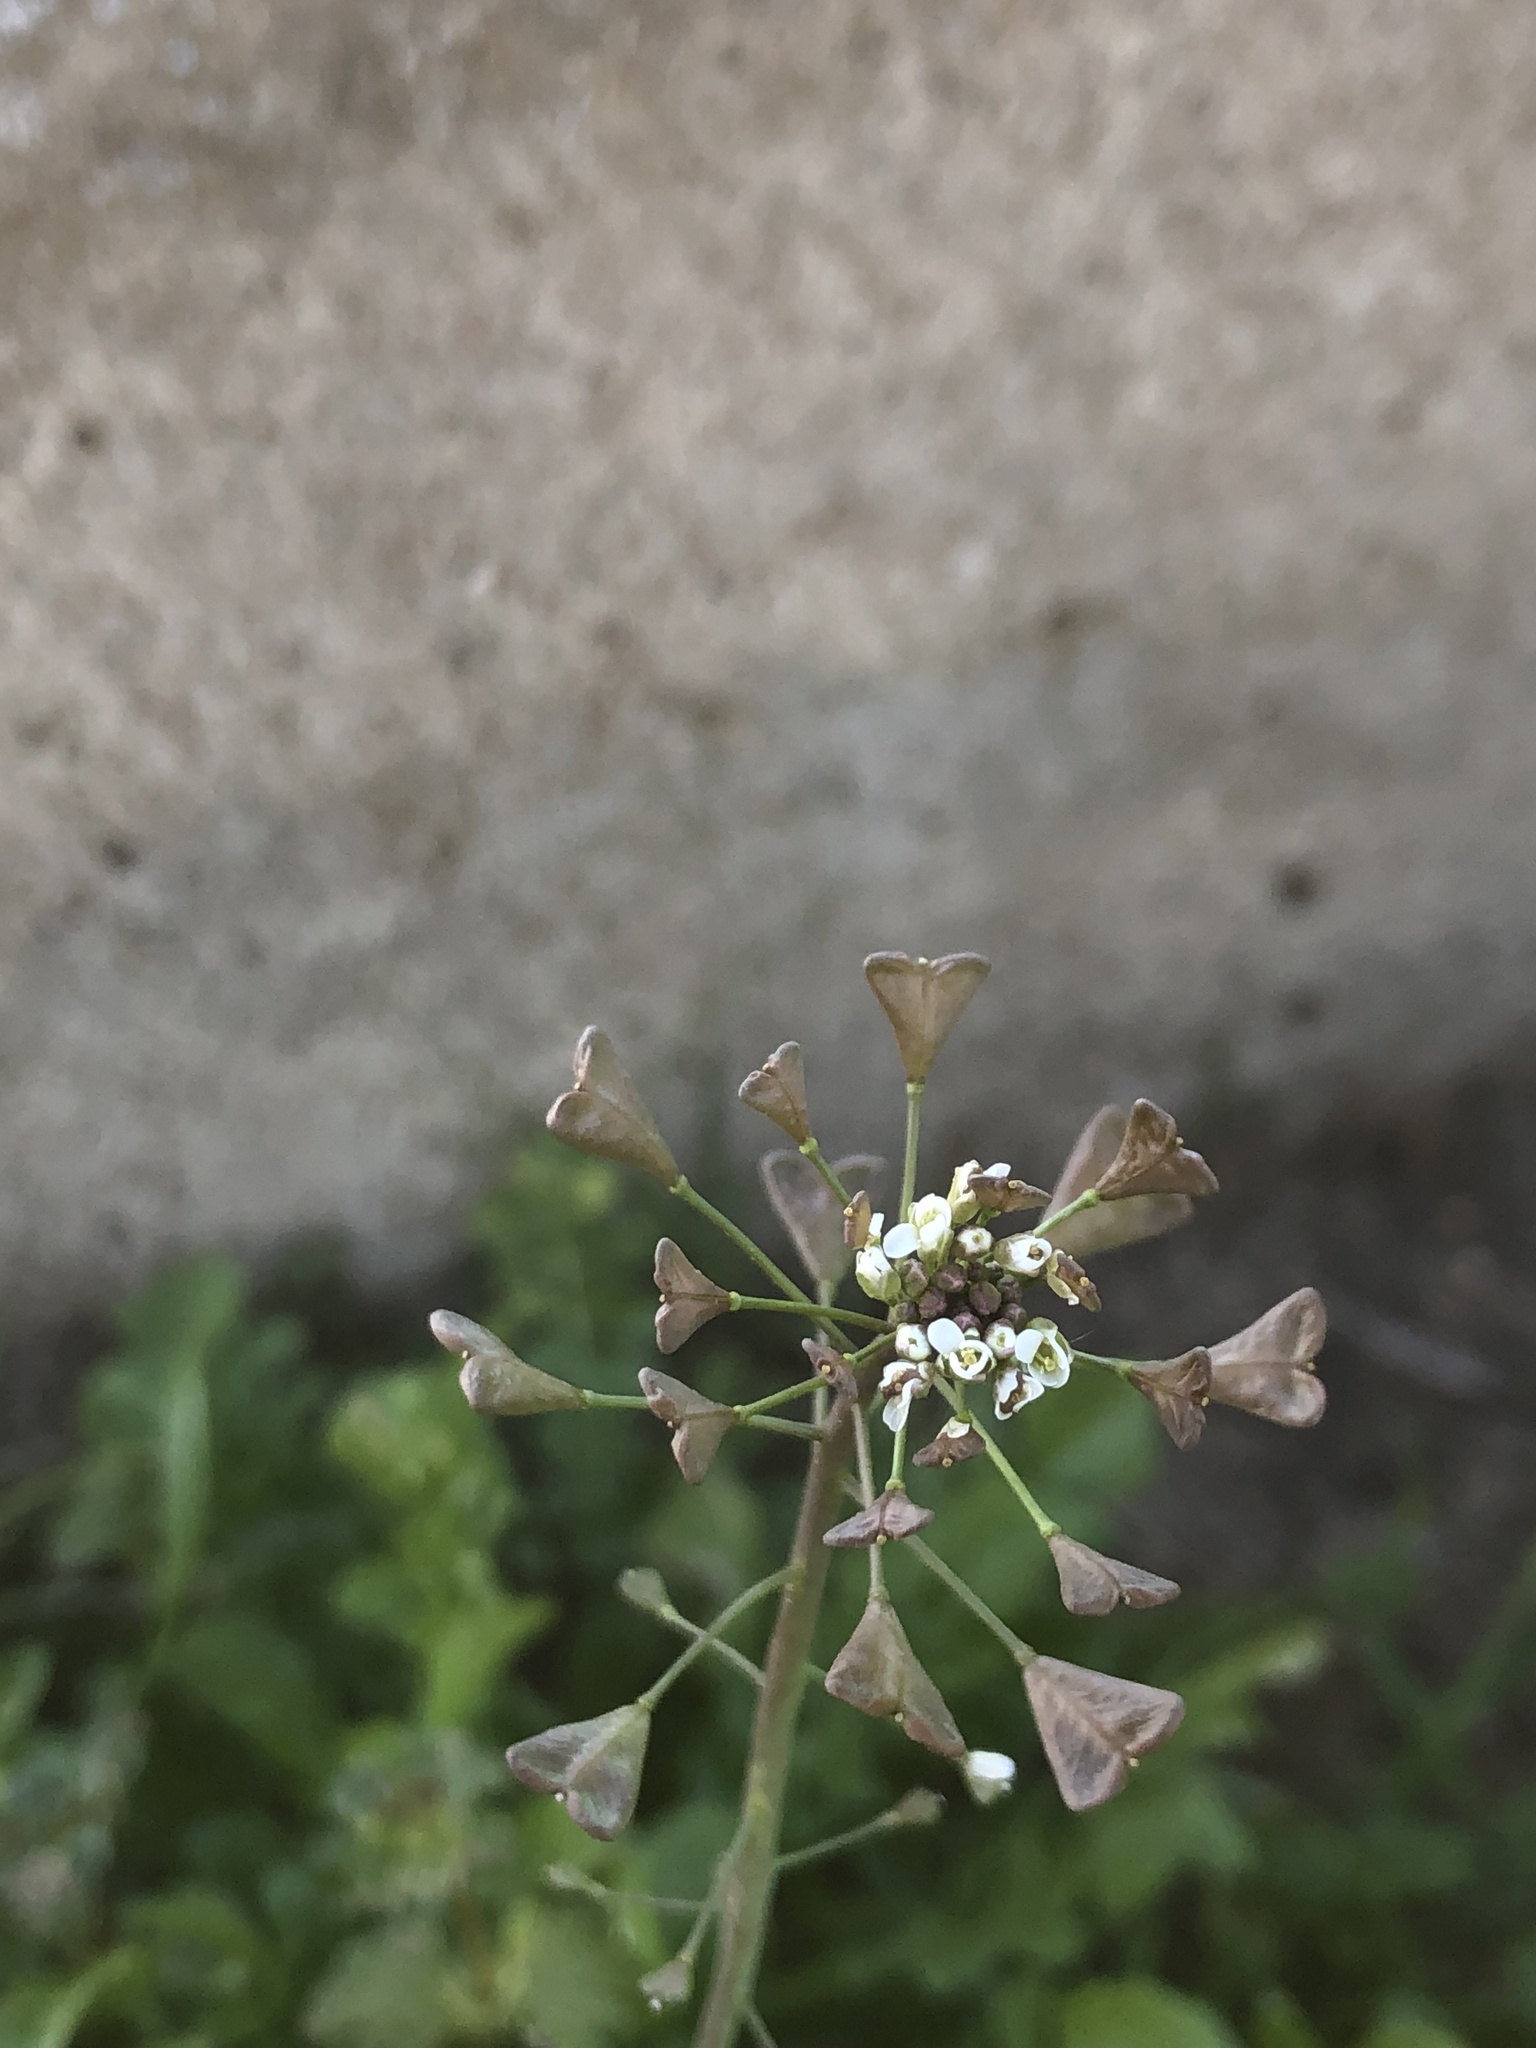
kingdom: Plantae
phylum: Tracheophyta
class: Magnoliopsida
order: Brassicales
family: Brassicaceae
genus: Capsella
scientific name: Capsella bursa-pastoris
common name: Shepherd's purse
